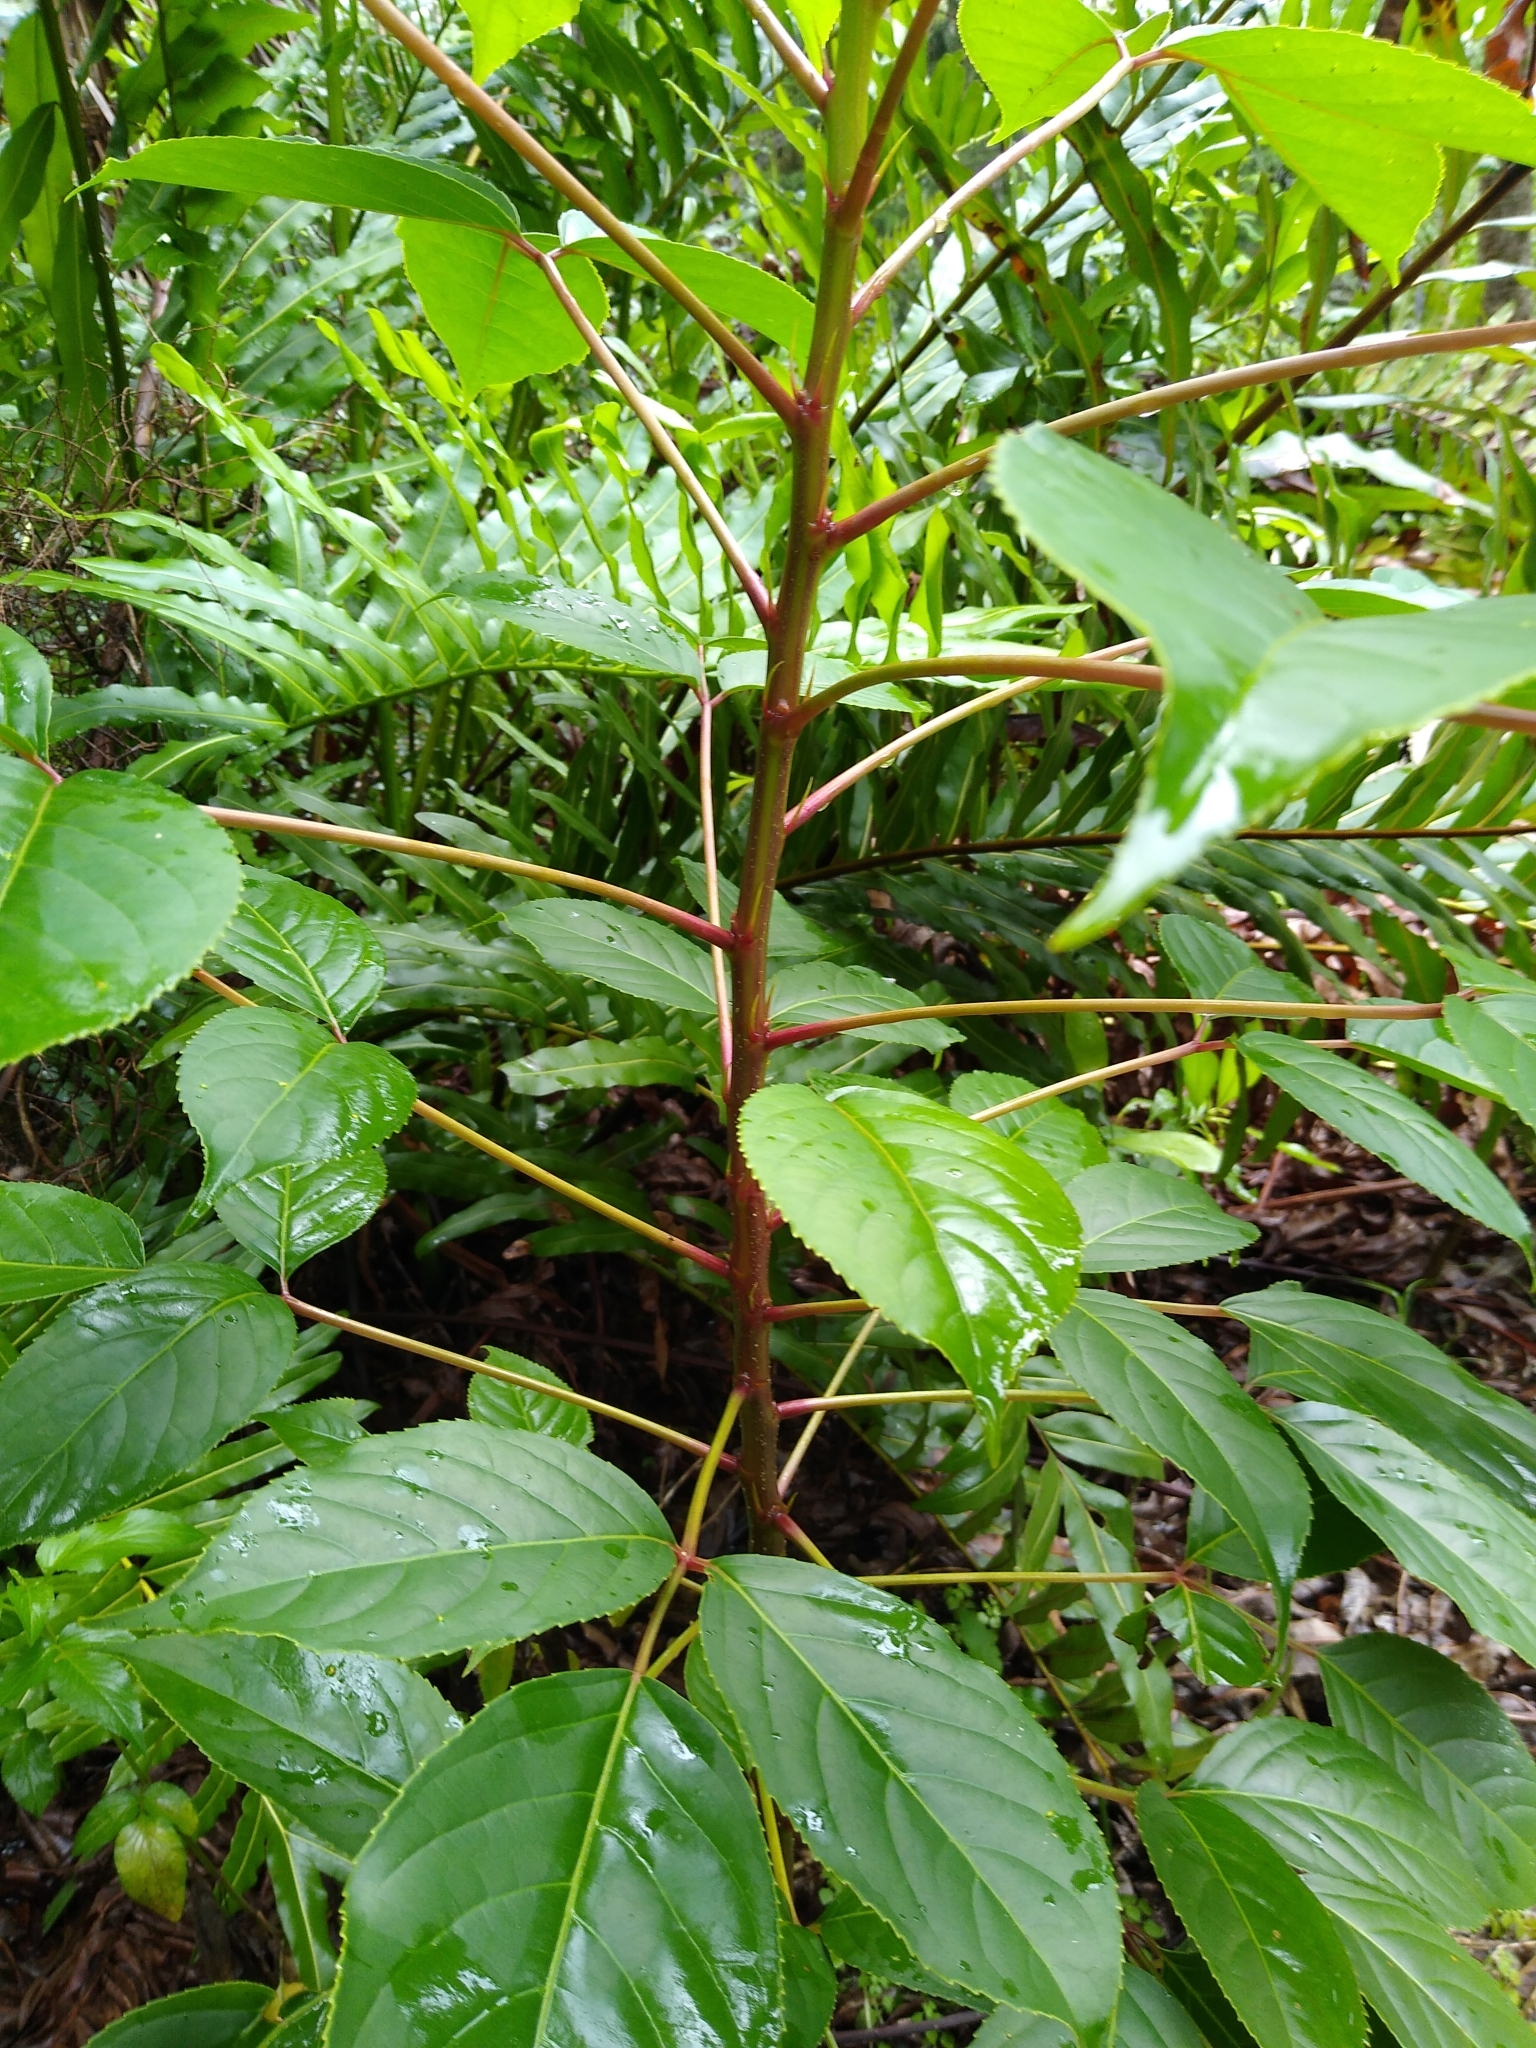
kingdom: Plantae
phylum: Tracheophyta
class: Magnoliopsida
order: Malpighiales
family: Phyllanthaceae
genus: Bischofia
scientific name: Bischofia javanica
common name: Javanese bishopwood
